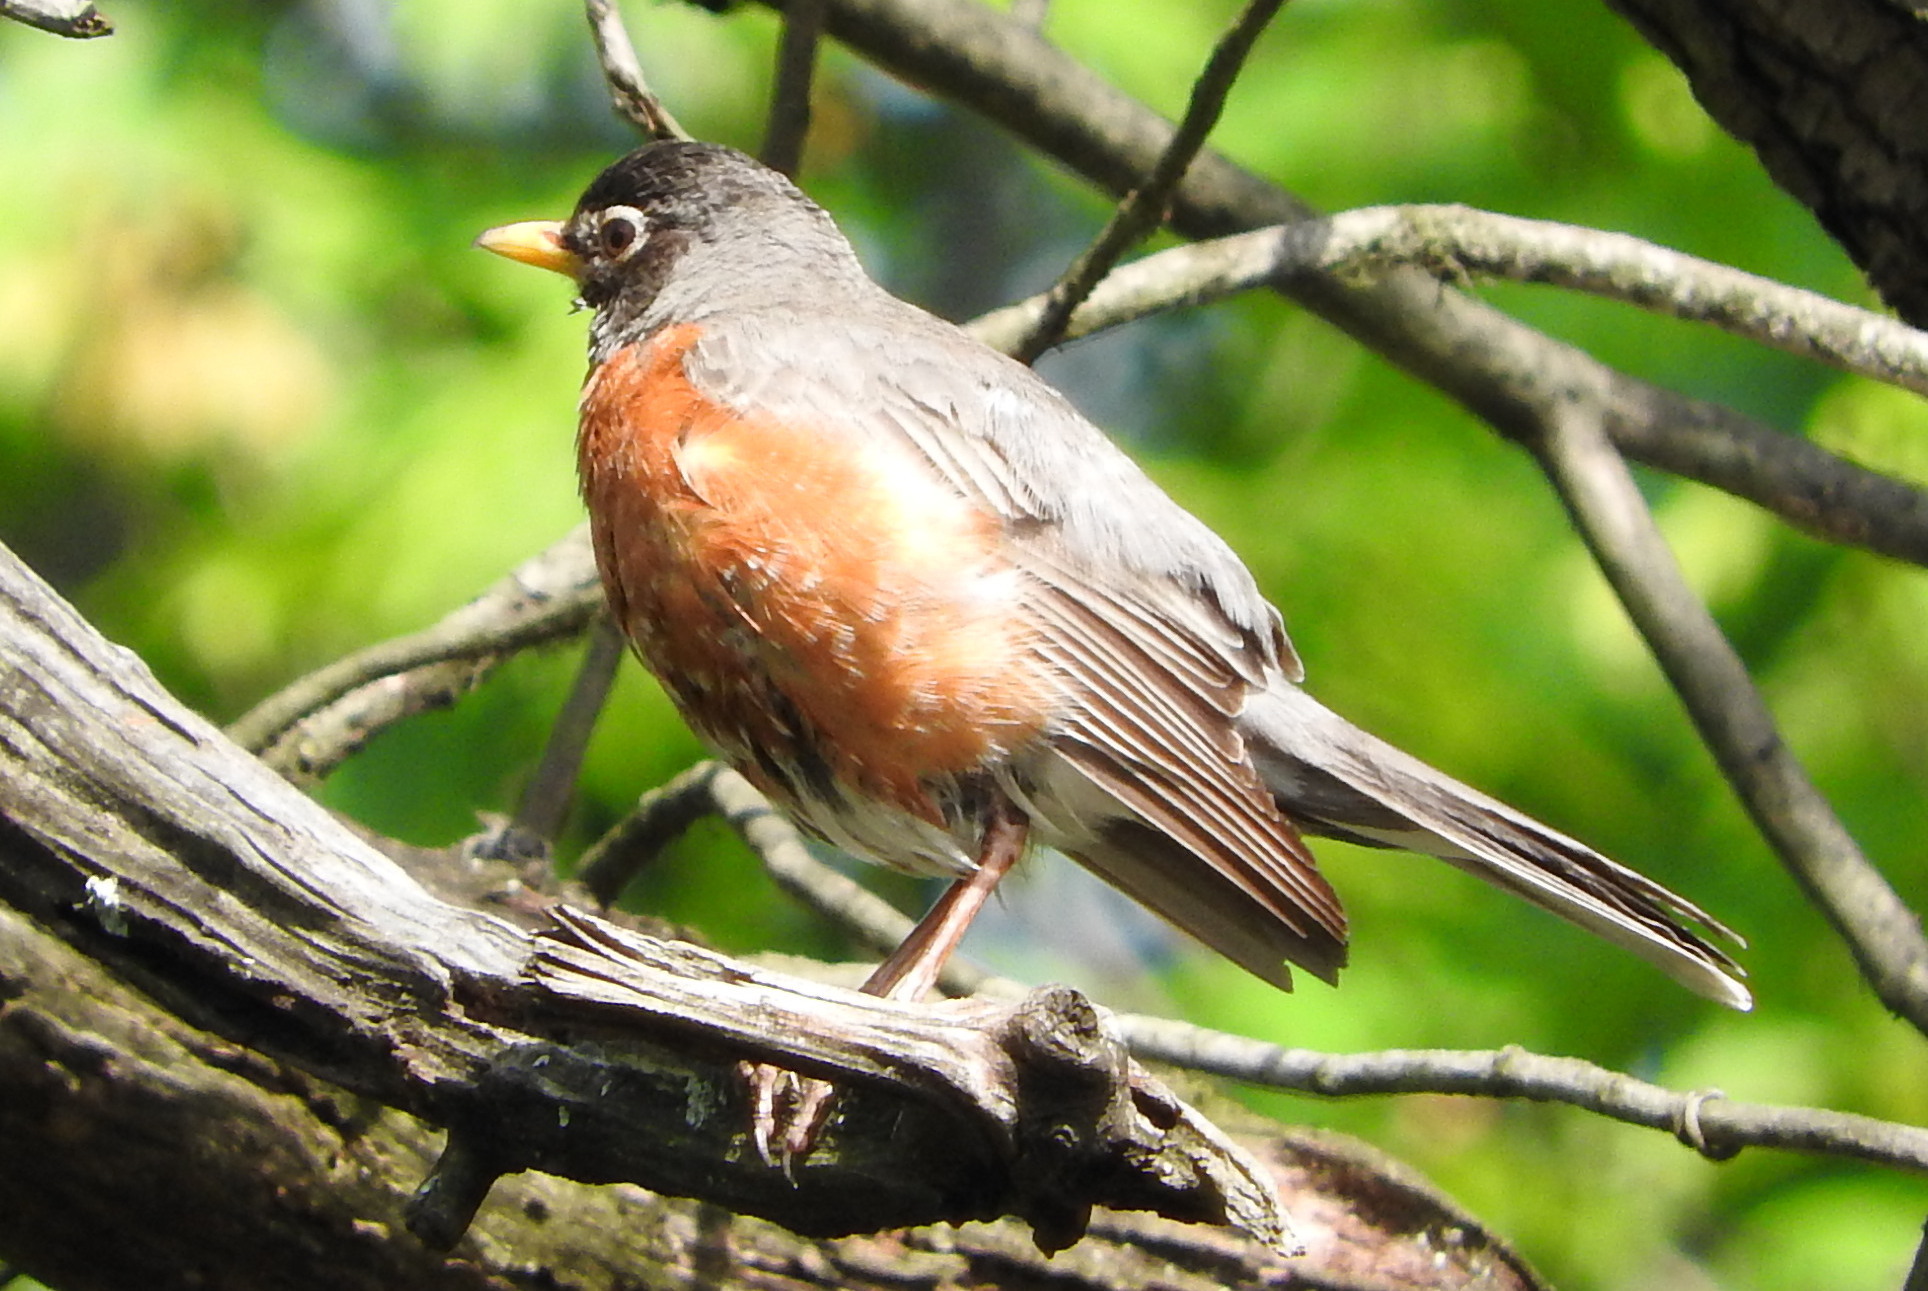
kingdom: Animalia
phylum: Chordata
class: Aves
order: Passeriformes
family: Turdidae
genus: Turdus
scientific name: Turdus migratorius
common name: American robin
